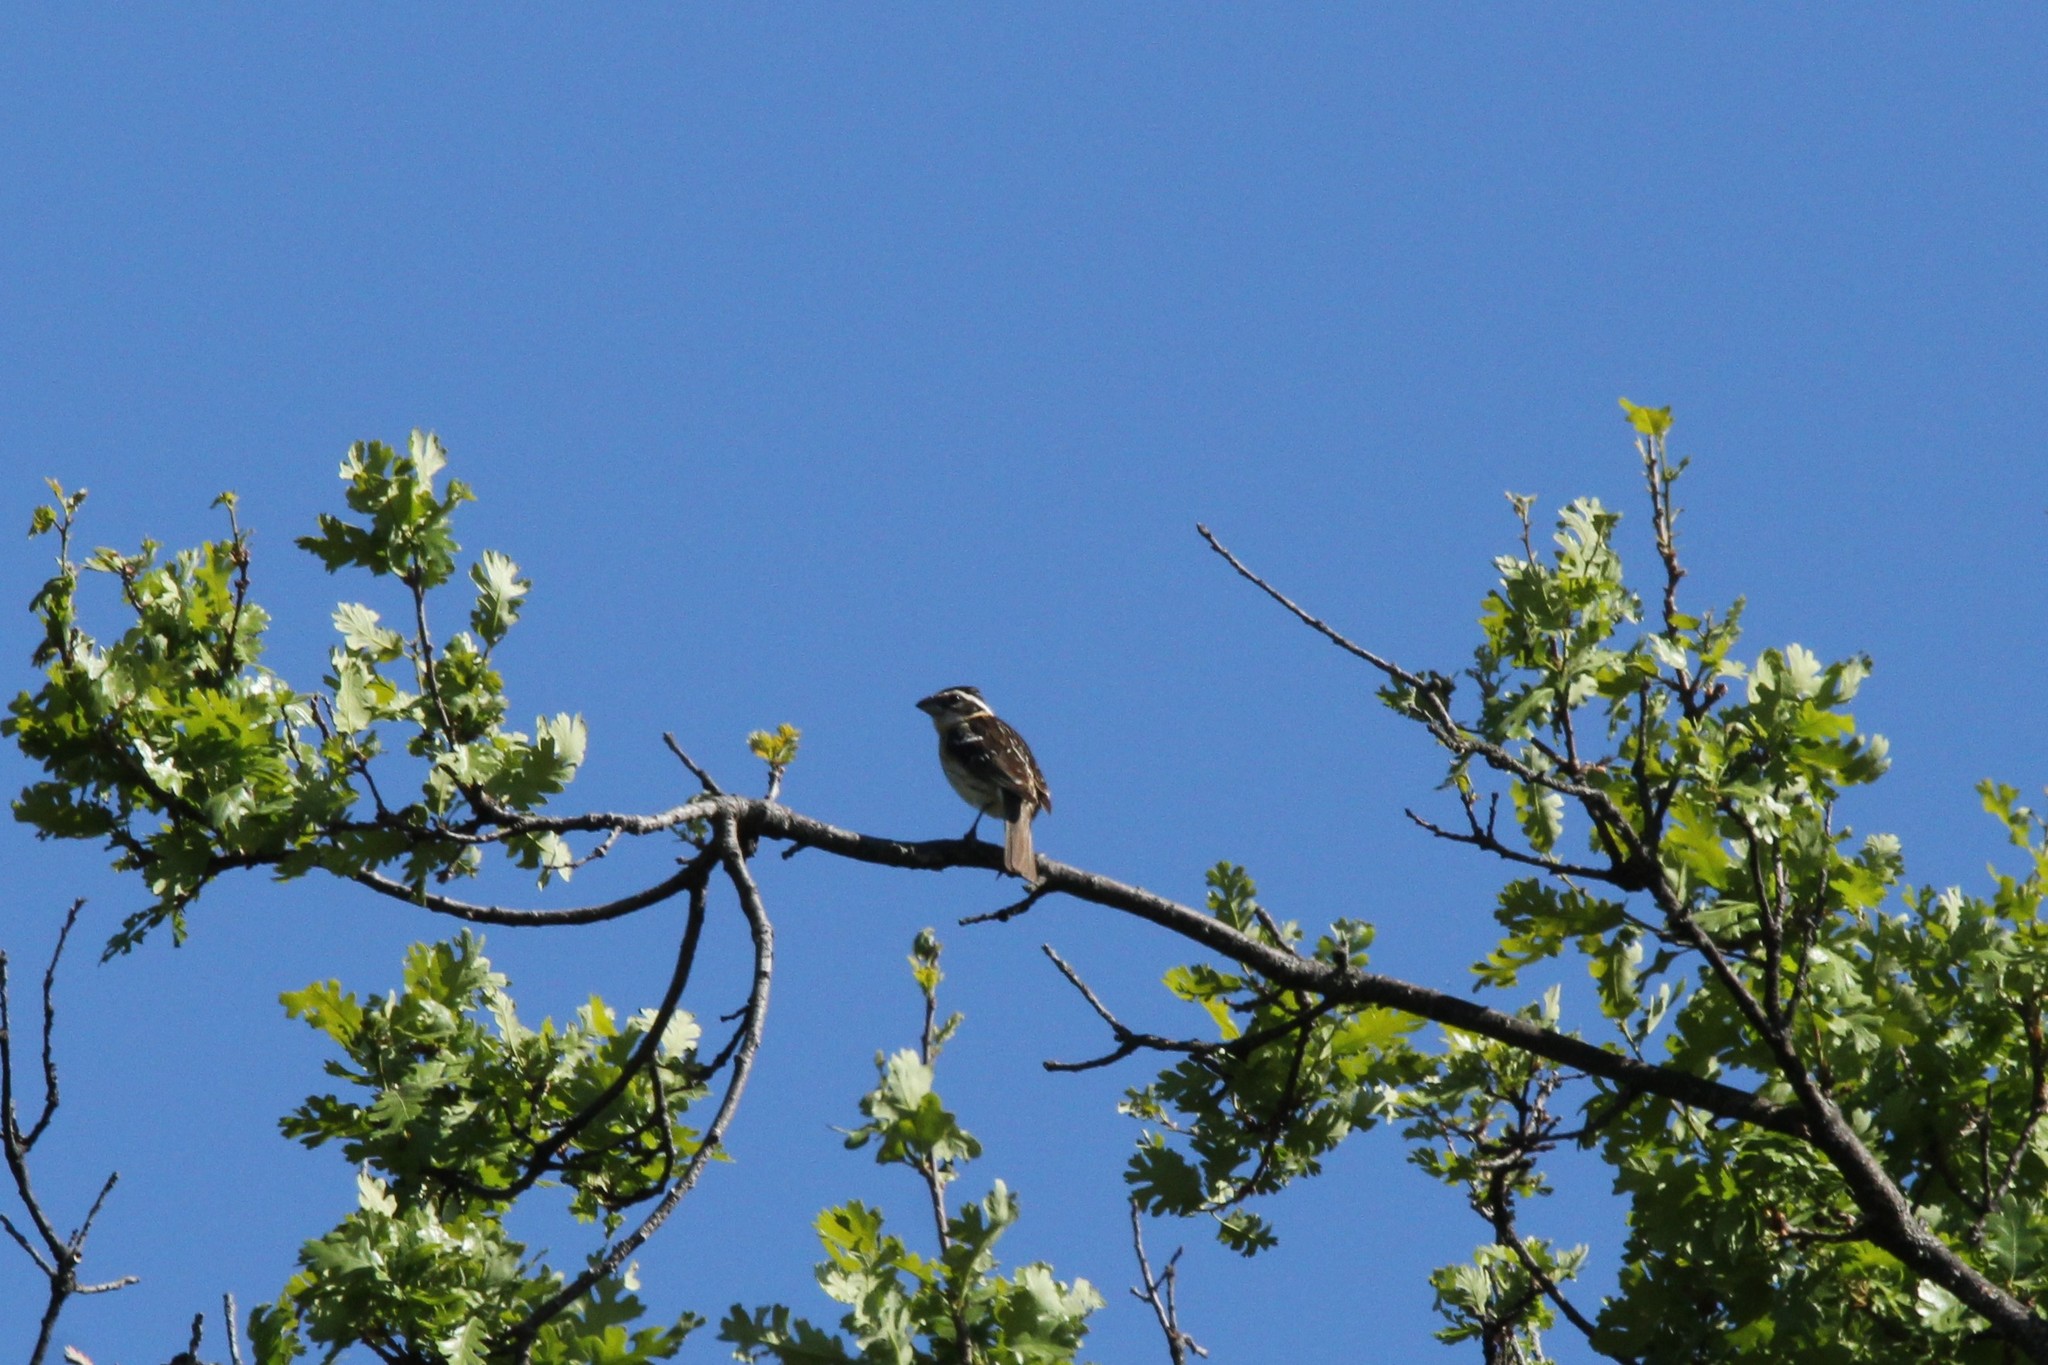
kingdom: Animalia
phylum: Chordata
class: Aves
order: Passeriformes
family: Cardinalidae
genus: Pheucticus
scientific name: Pheucticus melanocephalus
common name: Black-headed grosbeak
